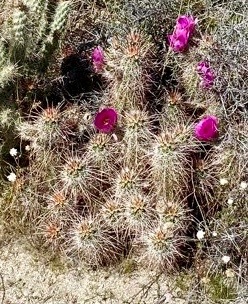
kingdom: Plantae
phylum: Tracheophyta
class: Magnoliopsida
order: Caryophyllales
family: Cactaceae
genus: Echinocereus
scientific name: Echinocereus engelmannii
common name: Engelmann's hedgehog cactus
